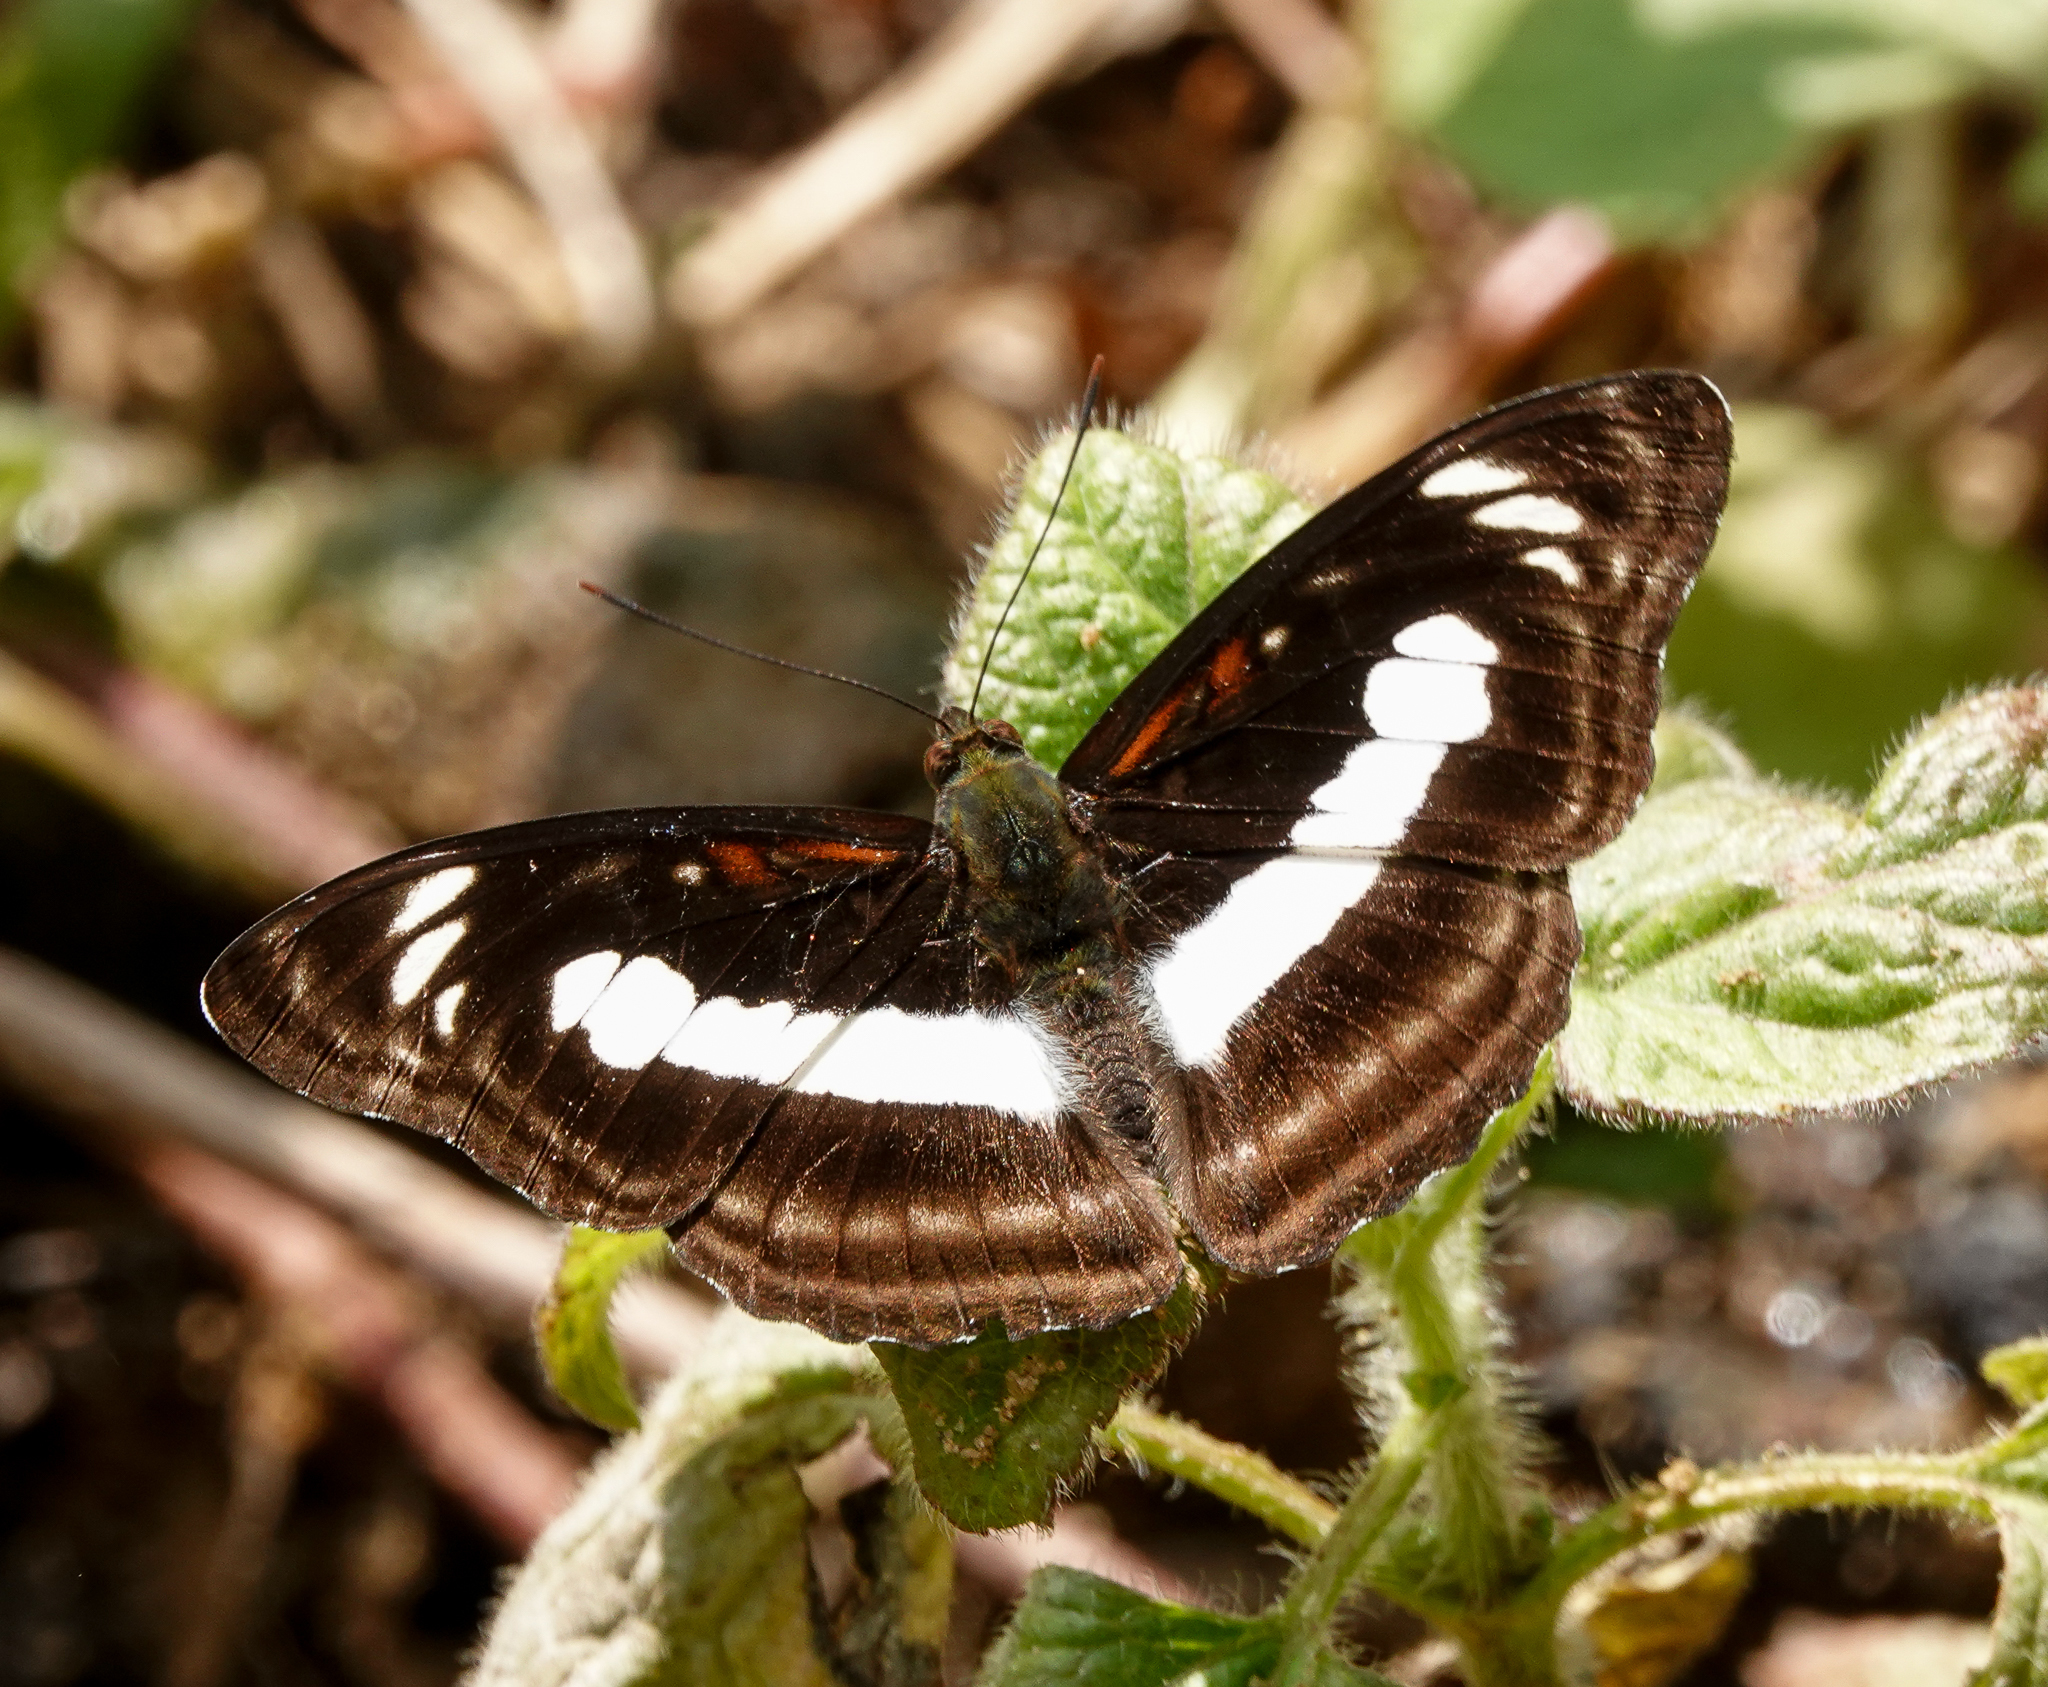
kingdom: Animalia
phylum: Arthropoda
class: Insecta
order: Lepidoptera
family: Nymphalidae
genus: Parathyma
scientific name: Parathyma selenophora
